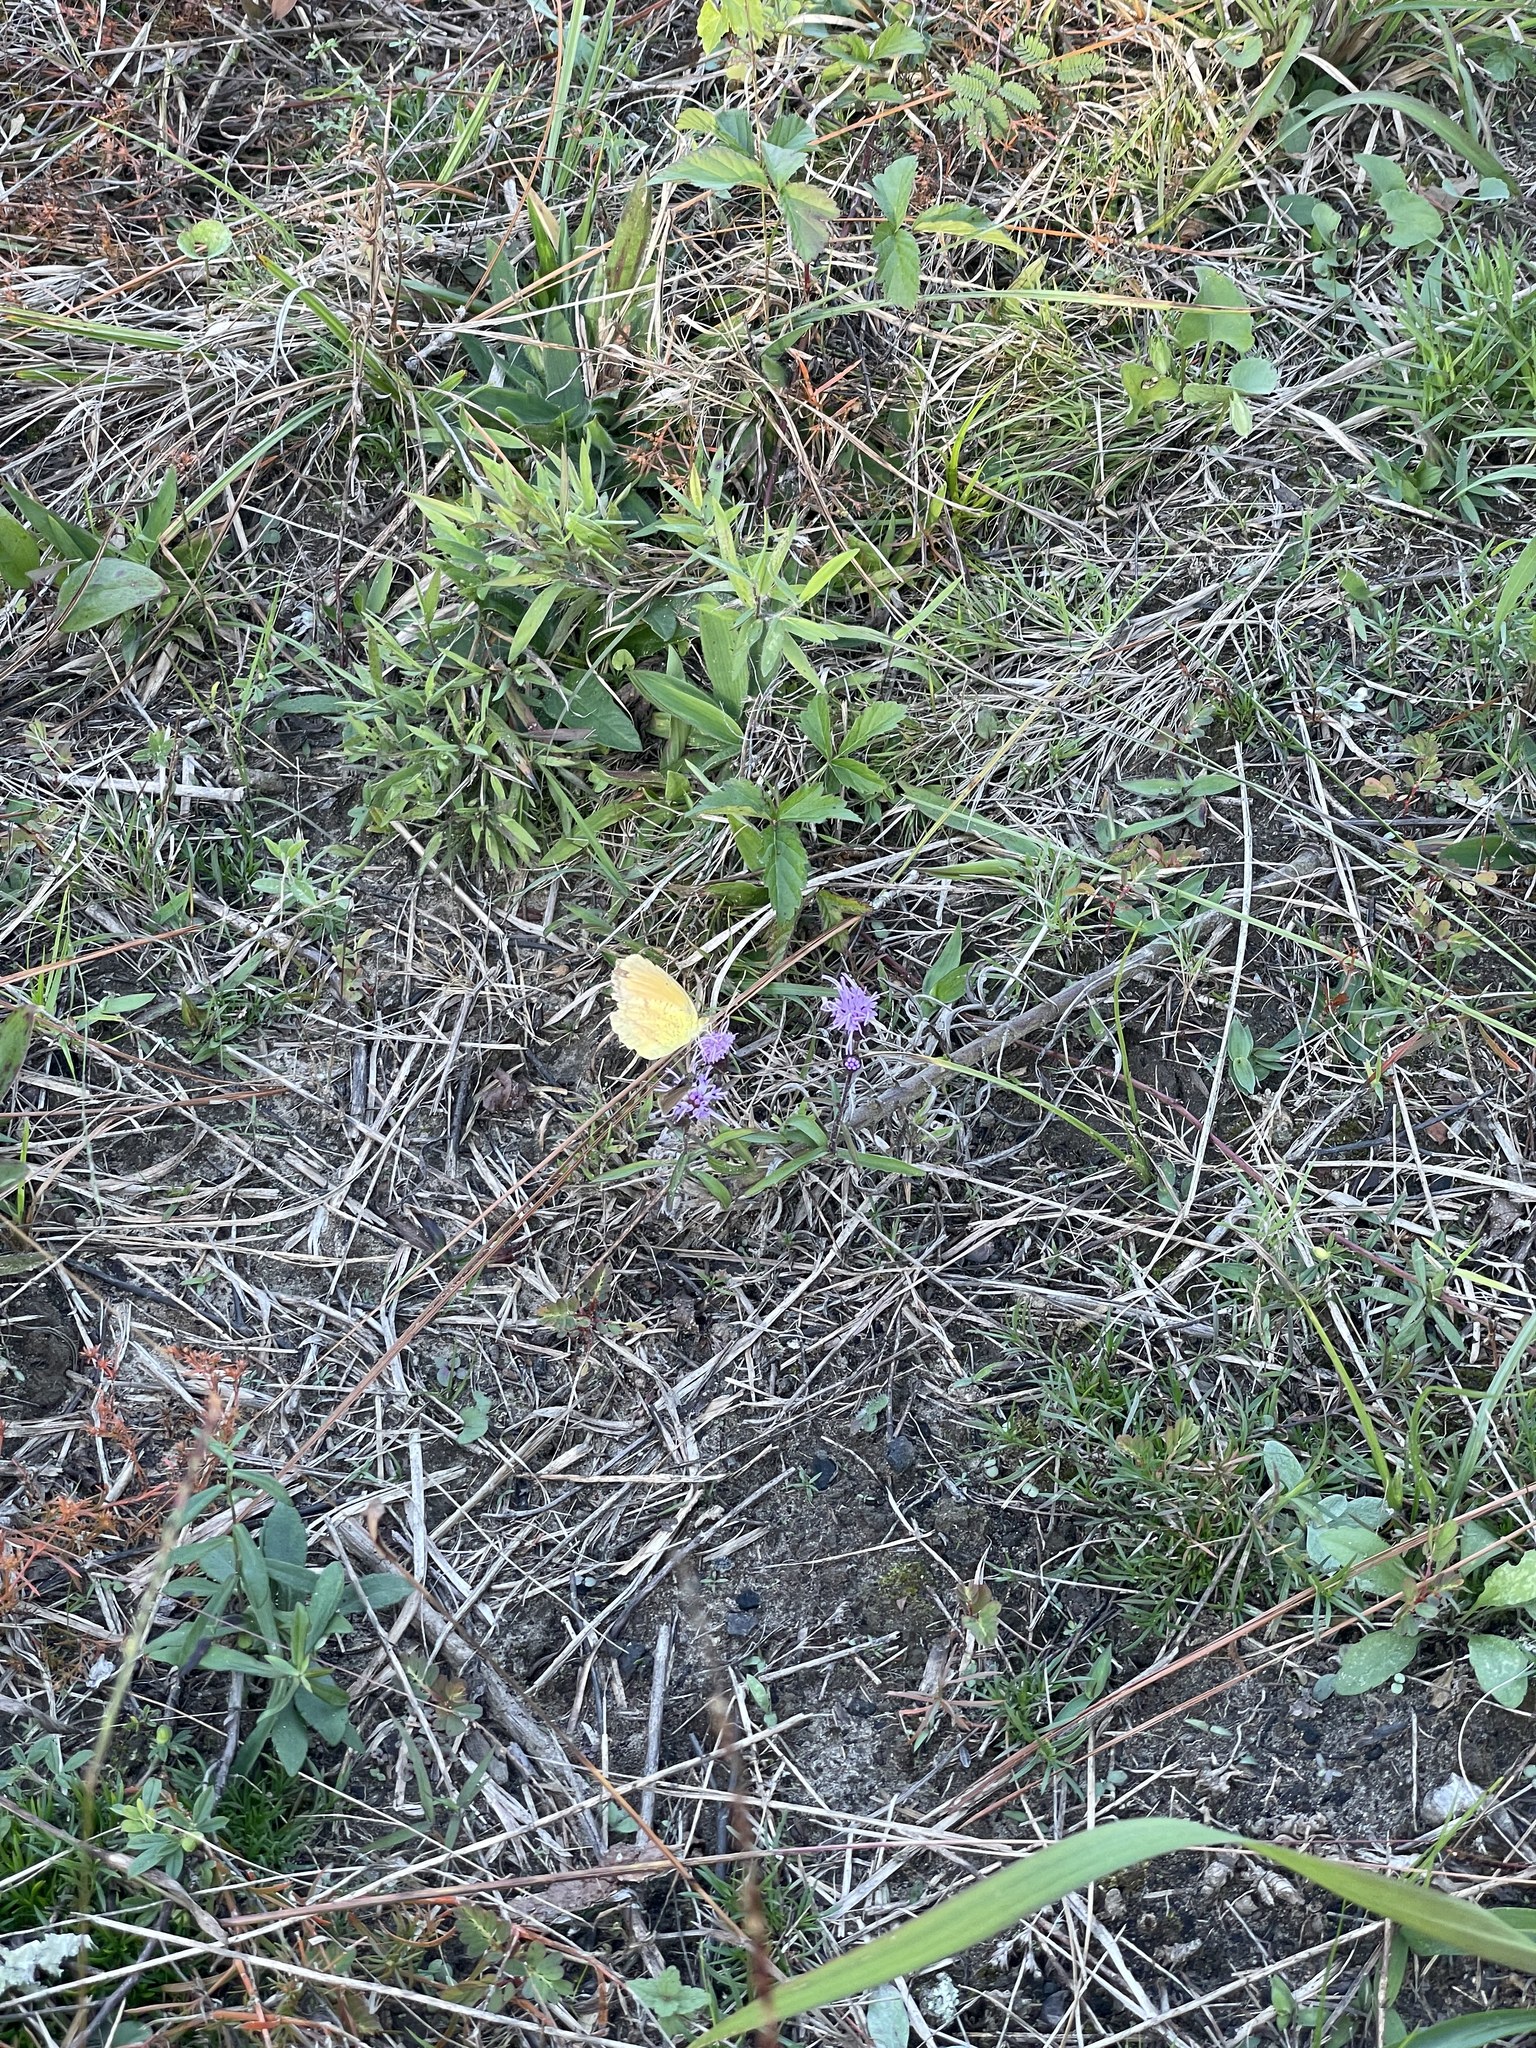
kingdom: Animalia
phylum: Arthropoda
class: Insecta
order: Lepidoptera
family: Pieridae
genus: Abaeis
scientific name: Abaeis nicippe
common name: Sleepy orange
